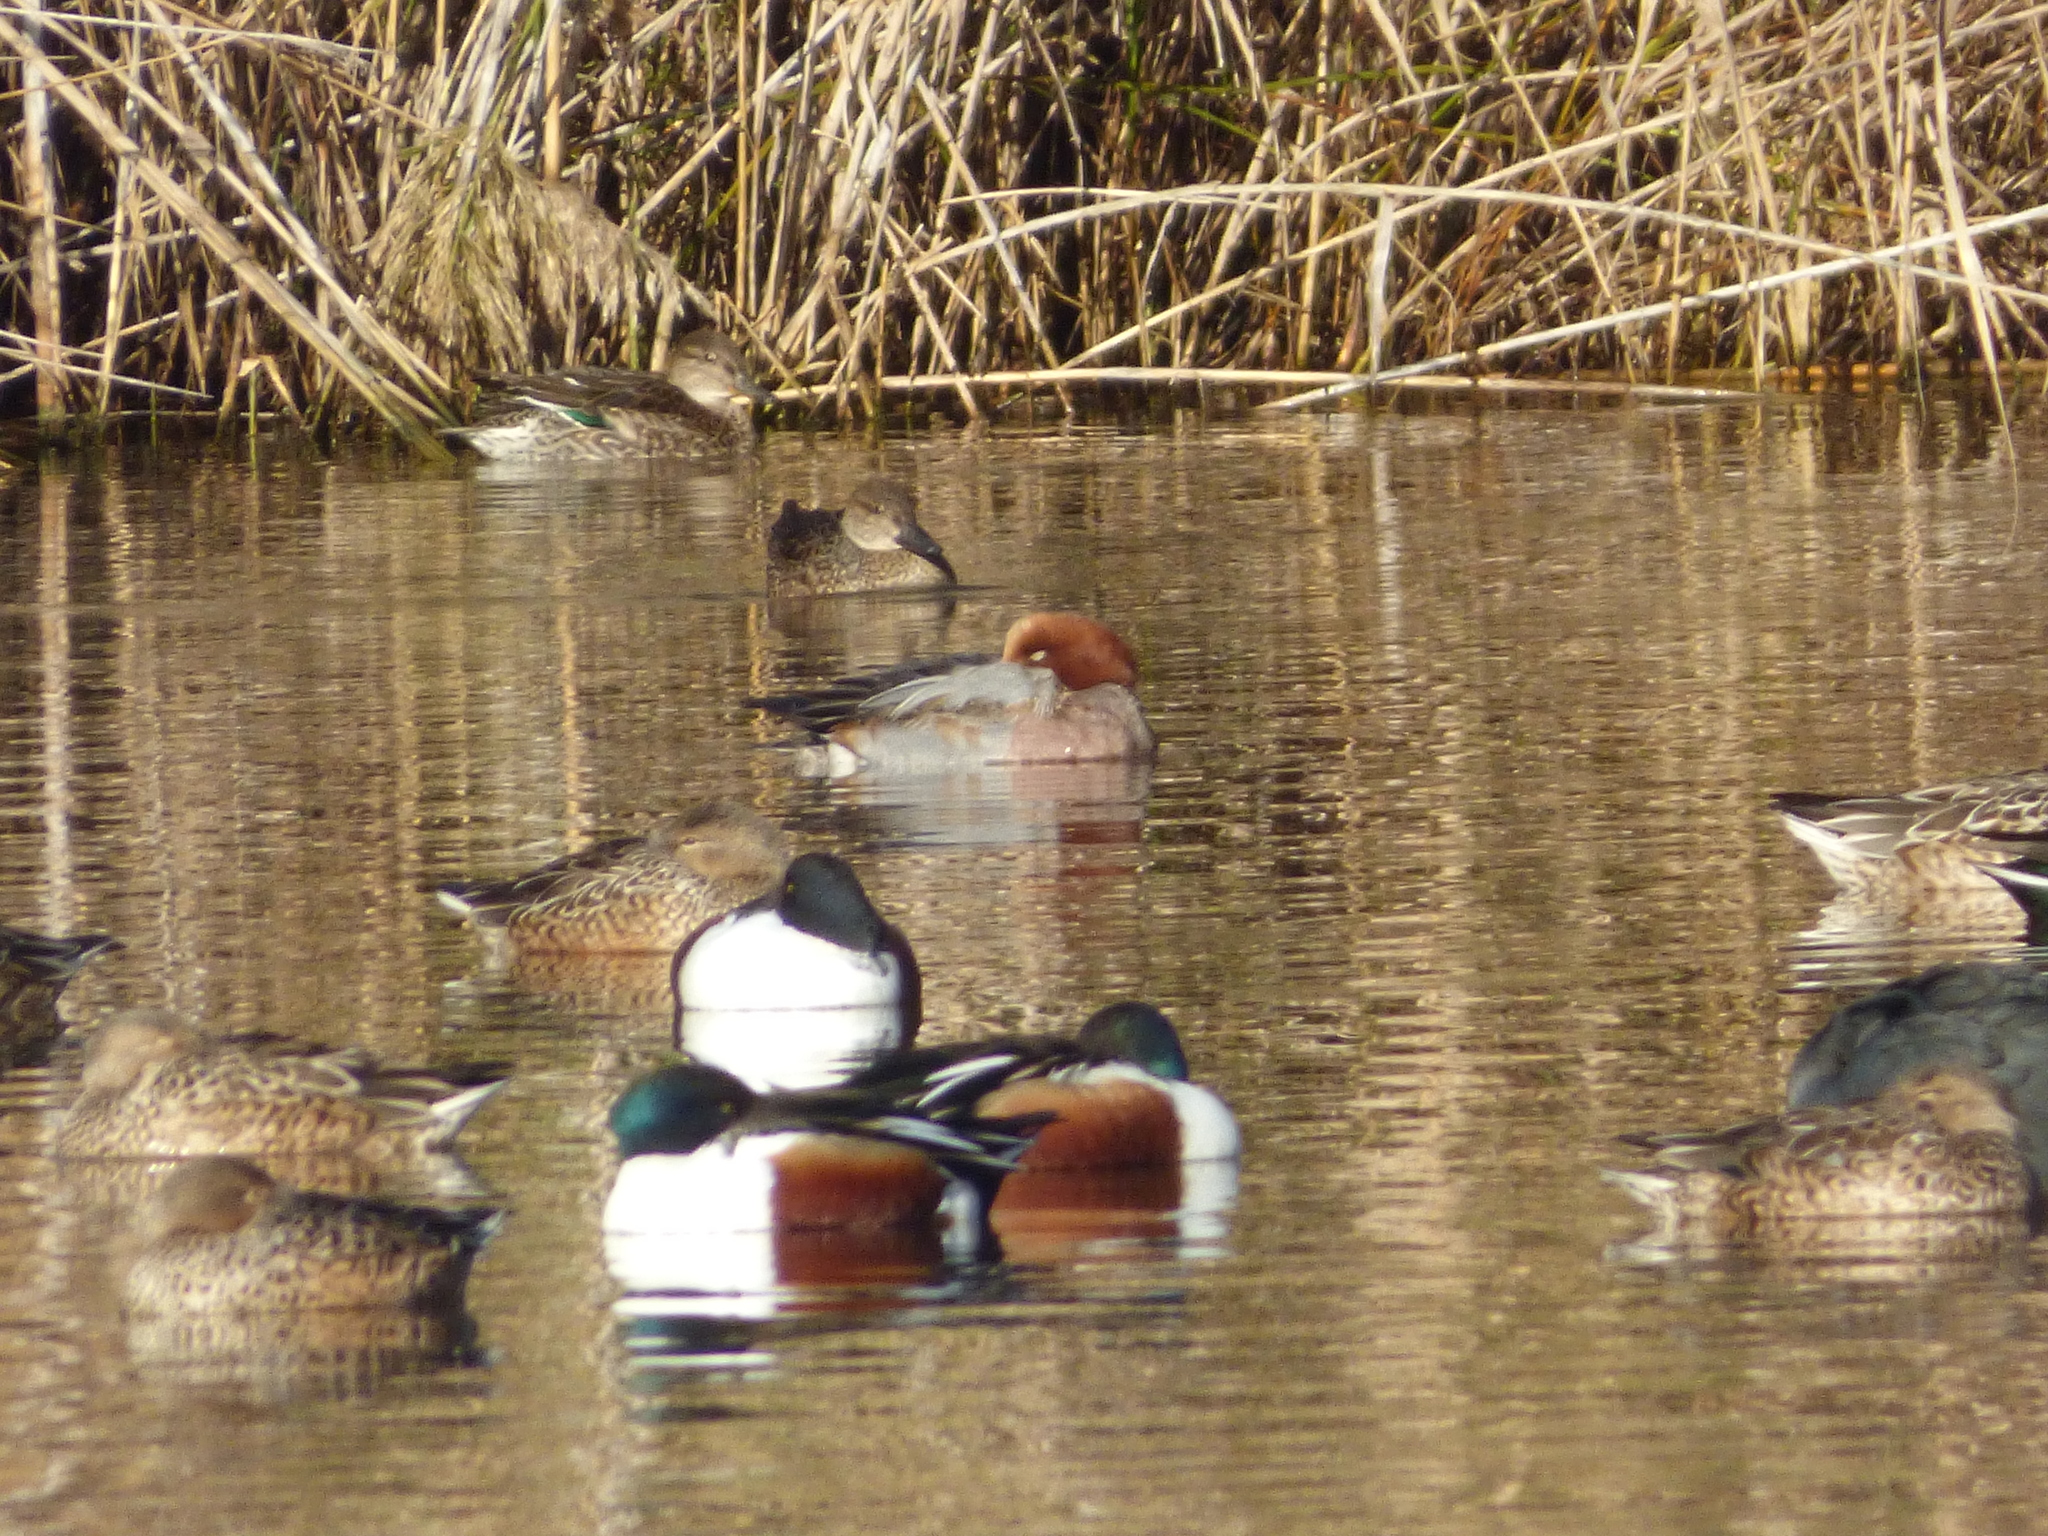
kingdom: Animalia
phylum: Chordata
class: Aves
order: Anseriformes
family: Anatidae
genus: Spatula
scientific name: Spatula clypeata
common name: Northern shoveler
